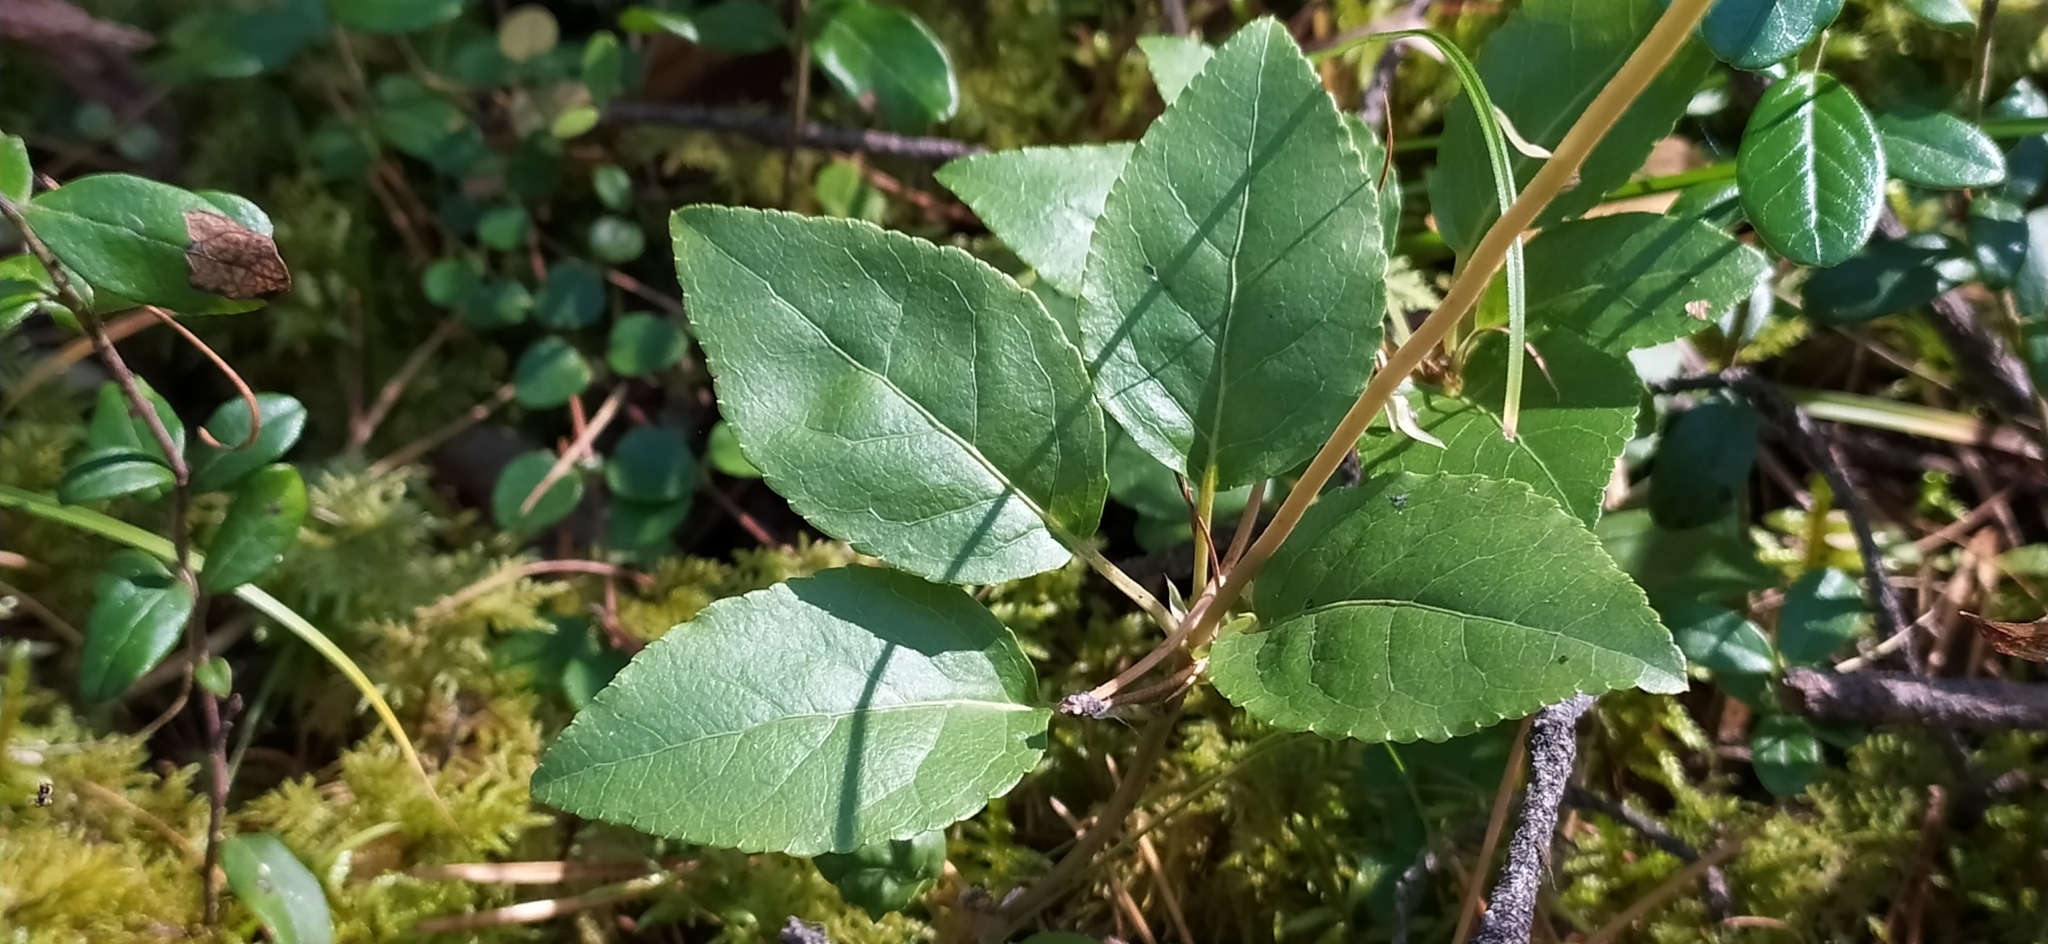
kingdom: Plantae
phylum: Tracheophyta
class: Magnoliopsida
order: Ericales
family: Ericaceae
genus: Orthilia
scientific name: Orthilia secunda
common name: One-sided orthilia
